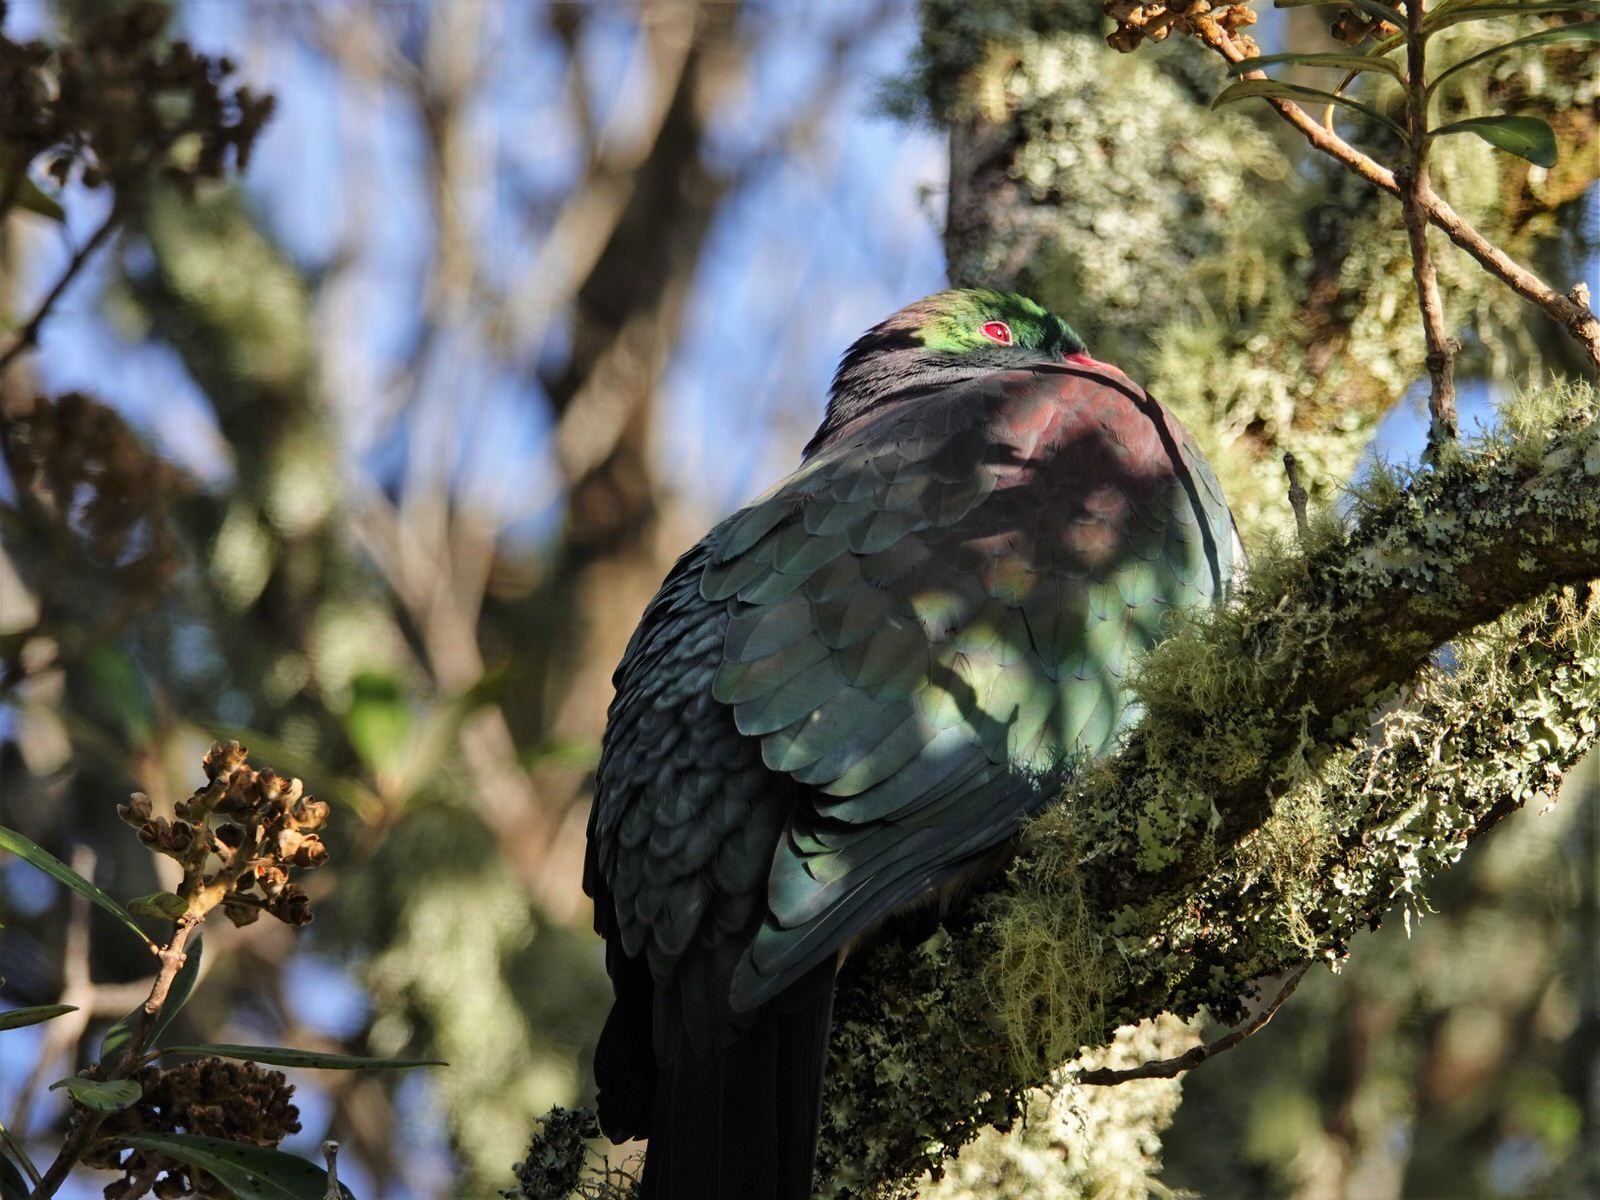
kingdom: Animalia
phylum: Chordata
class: Aves
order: Columbiformes
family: Columbidae
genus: Hemiphaga
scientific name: Hemiphaga novaeseelandiae
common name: New zealand pigeon
